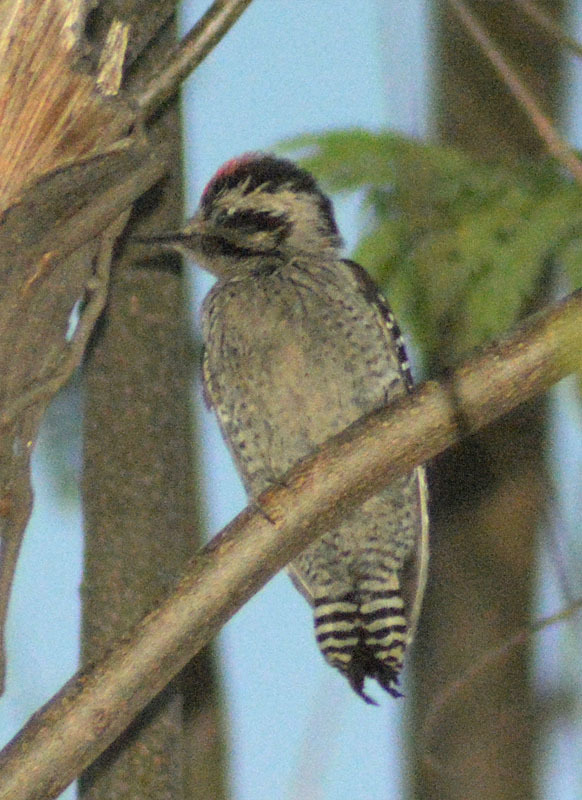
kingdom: Animalia
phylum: Chordata
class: Aves
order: Piciformes
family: Picidae
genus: Dryobates
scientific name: Dryobates scalaris
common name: Ladder-backed woodpecker
